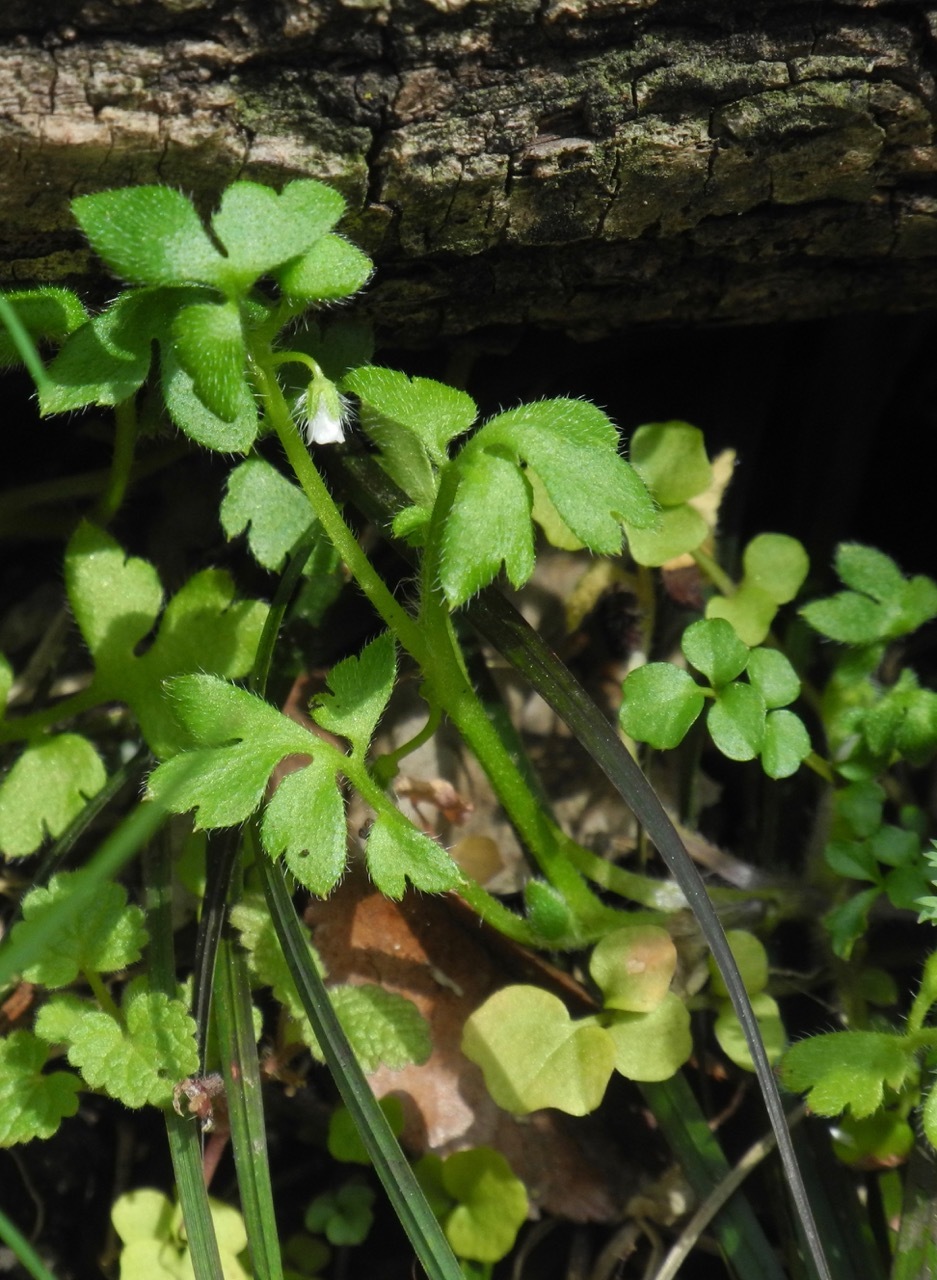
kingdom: Plantae
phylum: Tracheophyta
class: Magnoliopsida
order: Boraginales
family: Hydrophyllaceae
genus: Nemophila
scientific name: Nemophila aphylla
